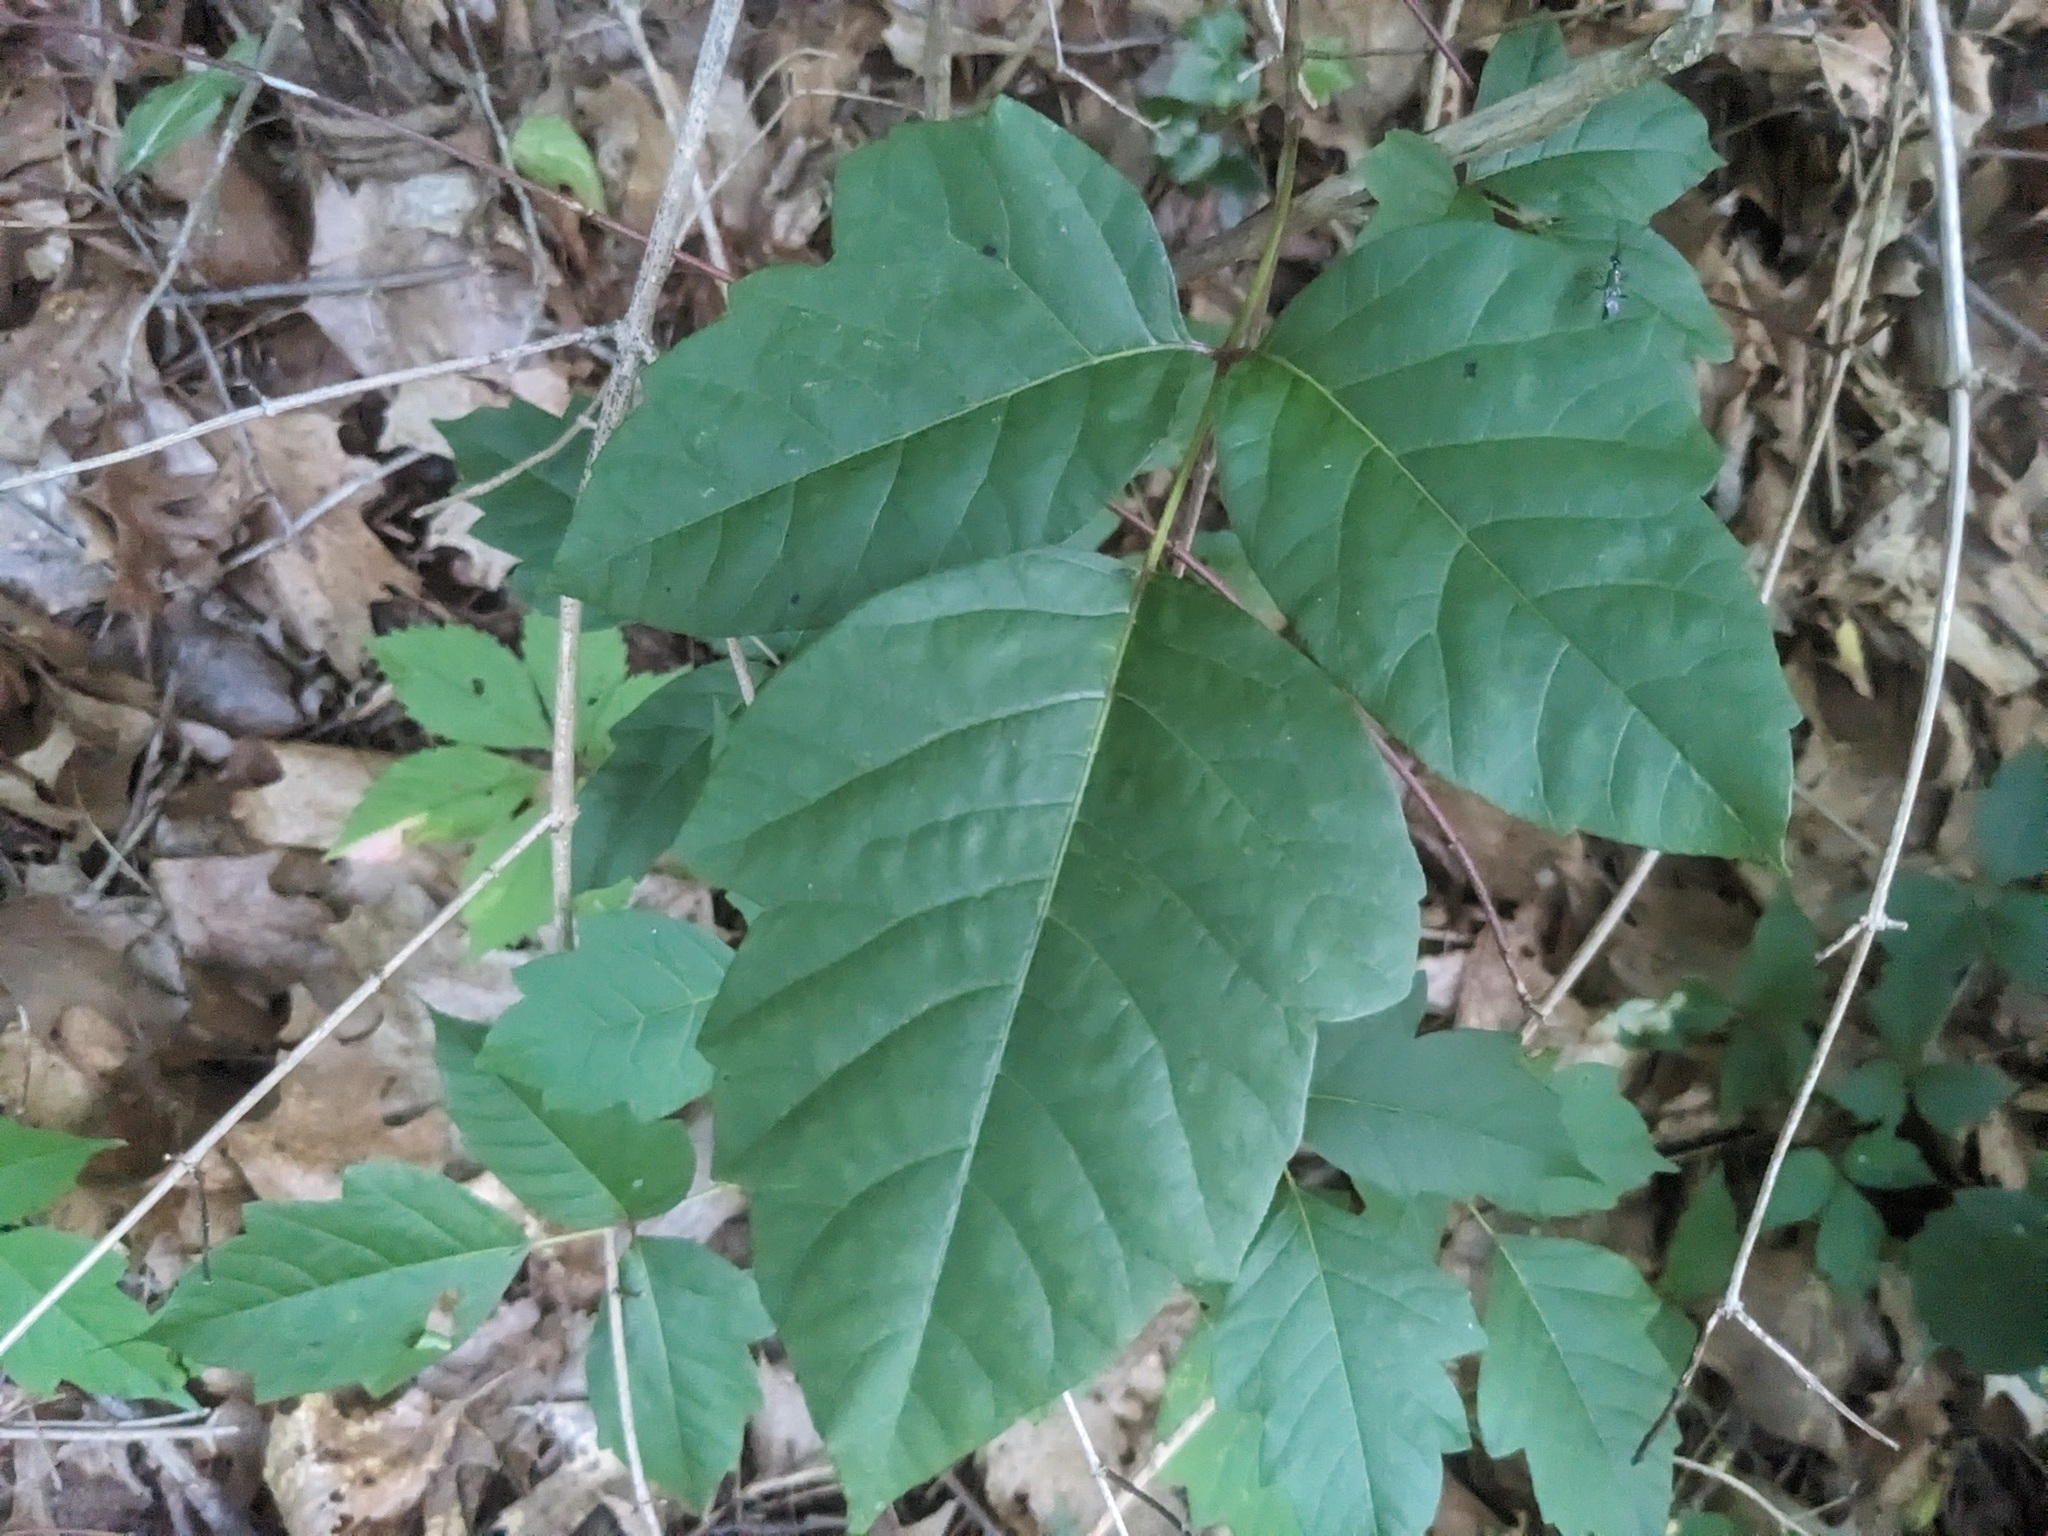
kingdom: Plantae
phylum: Tracheophyta
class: Magnoliopsida
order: Sapindales
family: Anacardiaceae
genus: Toxicodendron
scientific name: Toxicodendron radicans
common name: Poison ivy
